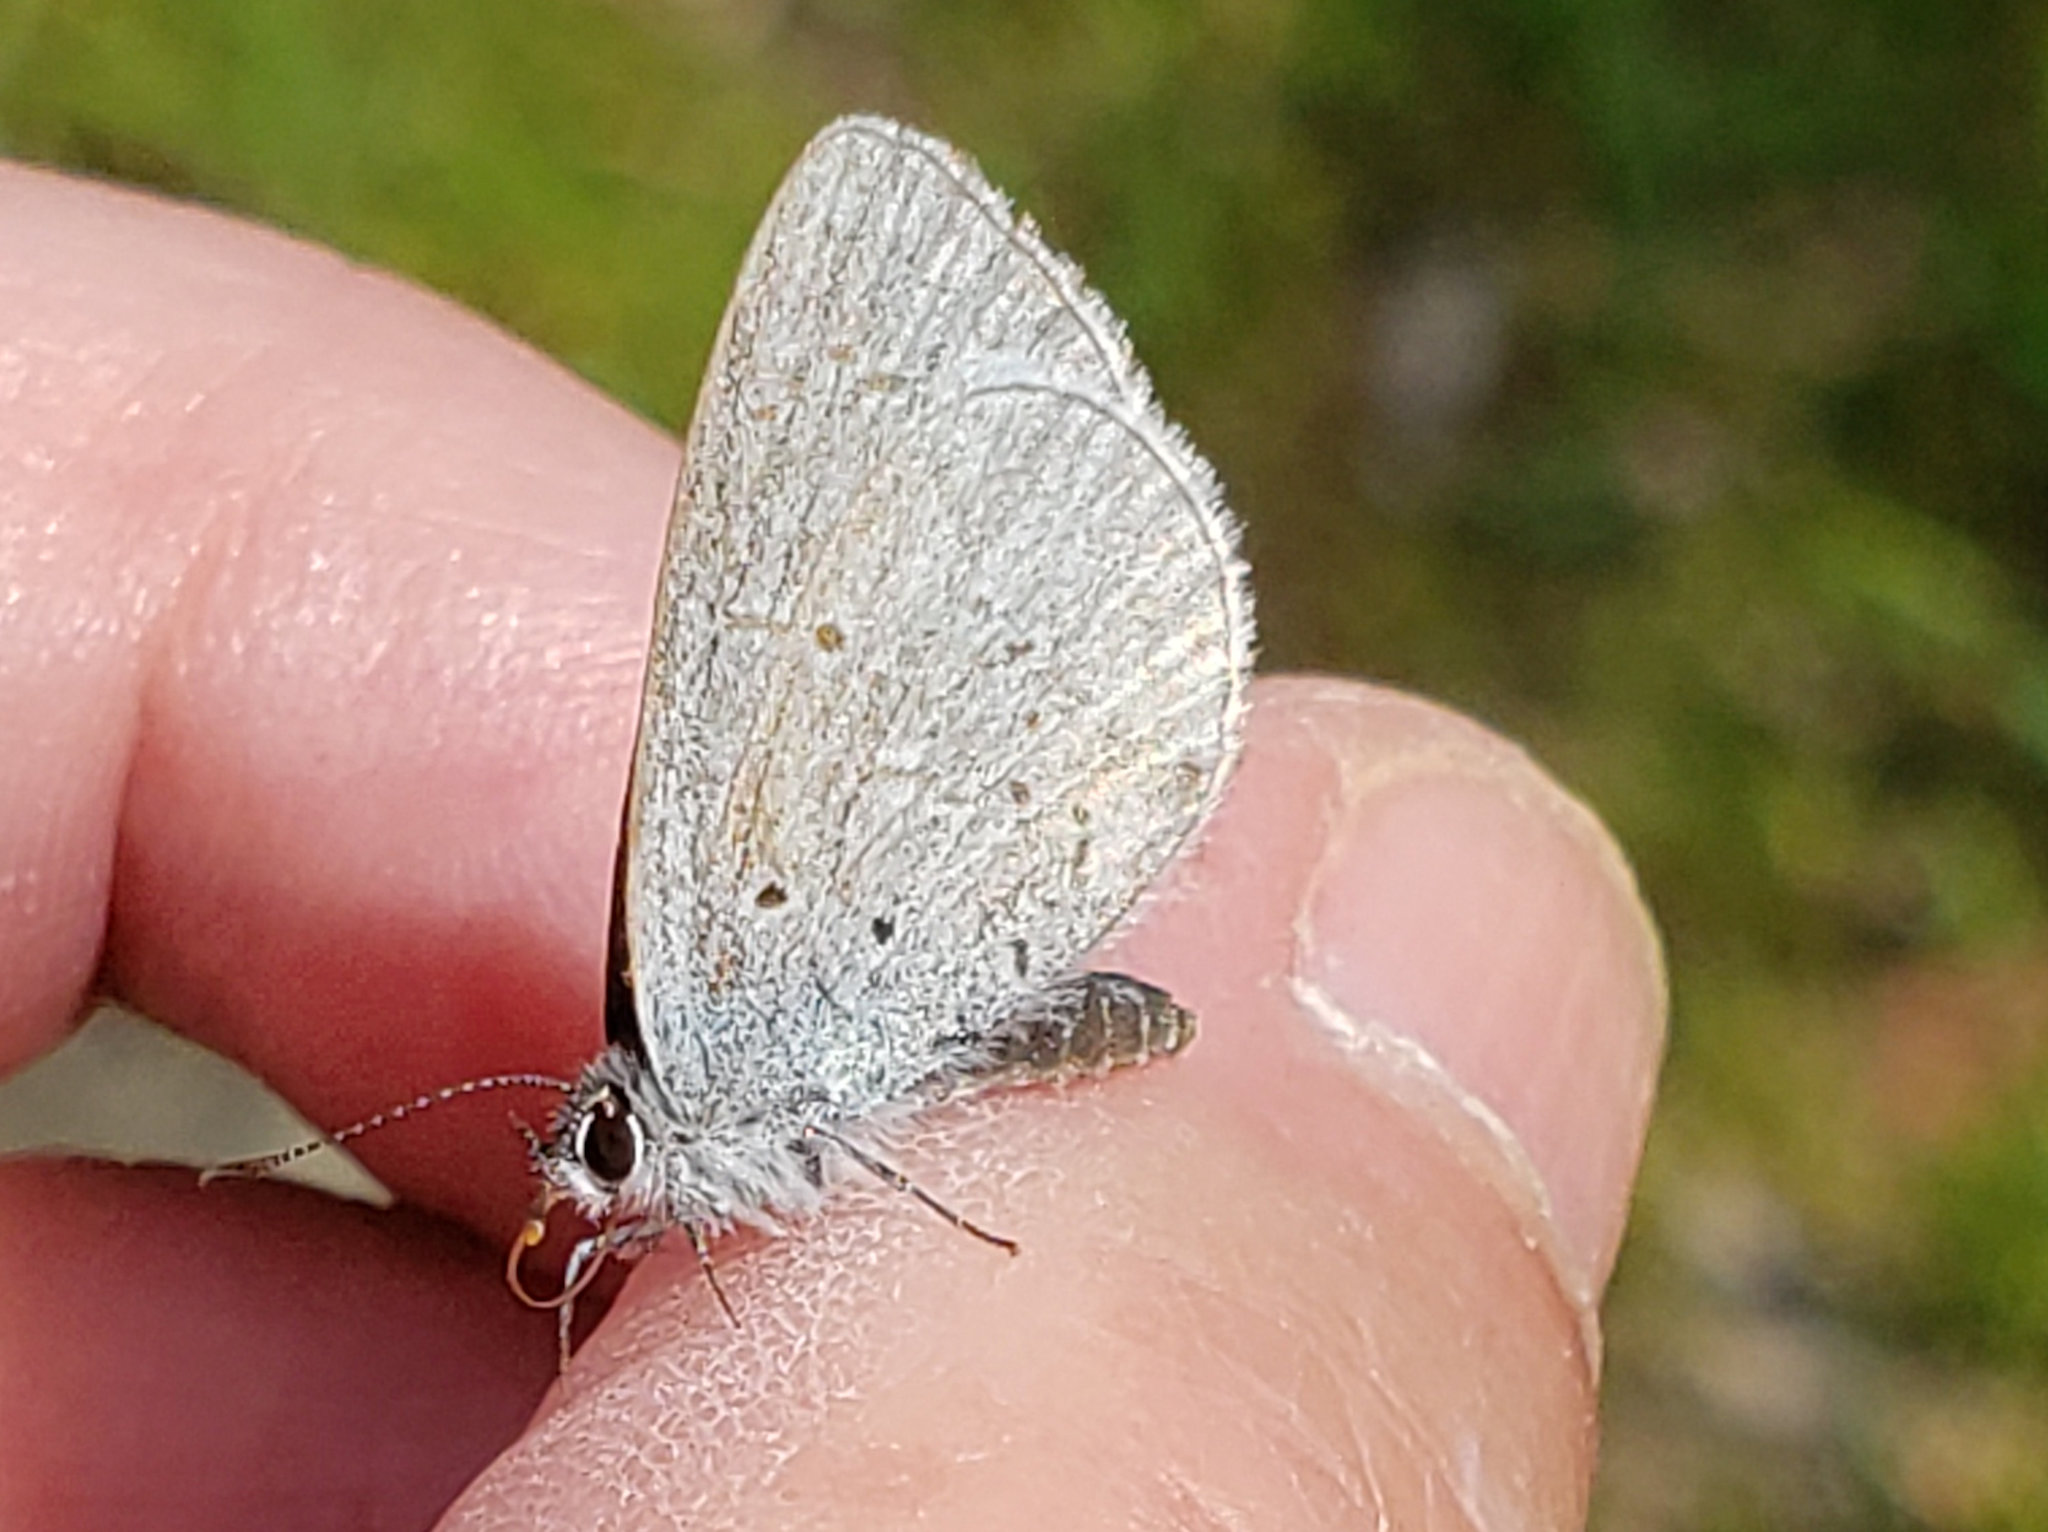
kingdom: Animalia
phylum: Arthropoda
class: Insecta
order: Lepidoptera
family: Lycaenidae
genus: Celastrina
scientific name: Celastrina ladon
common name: Spring azure
